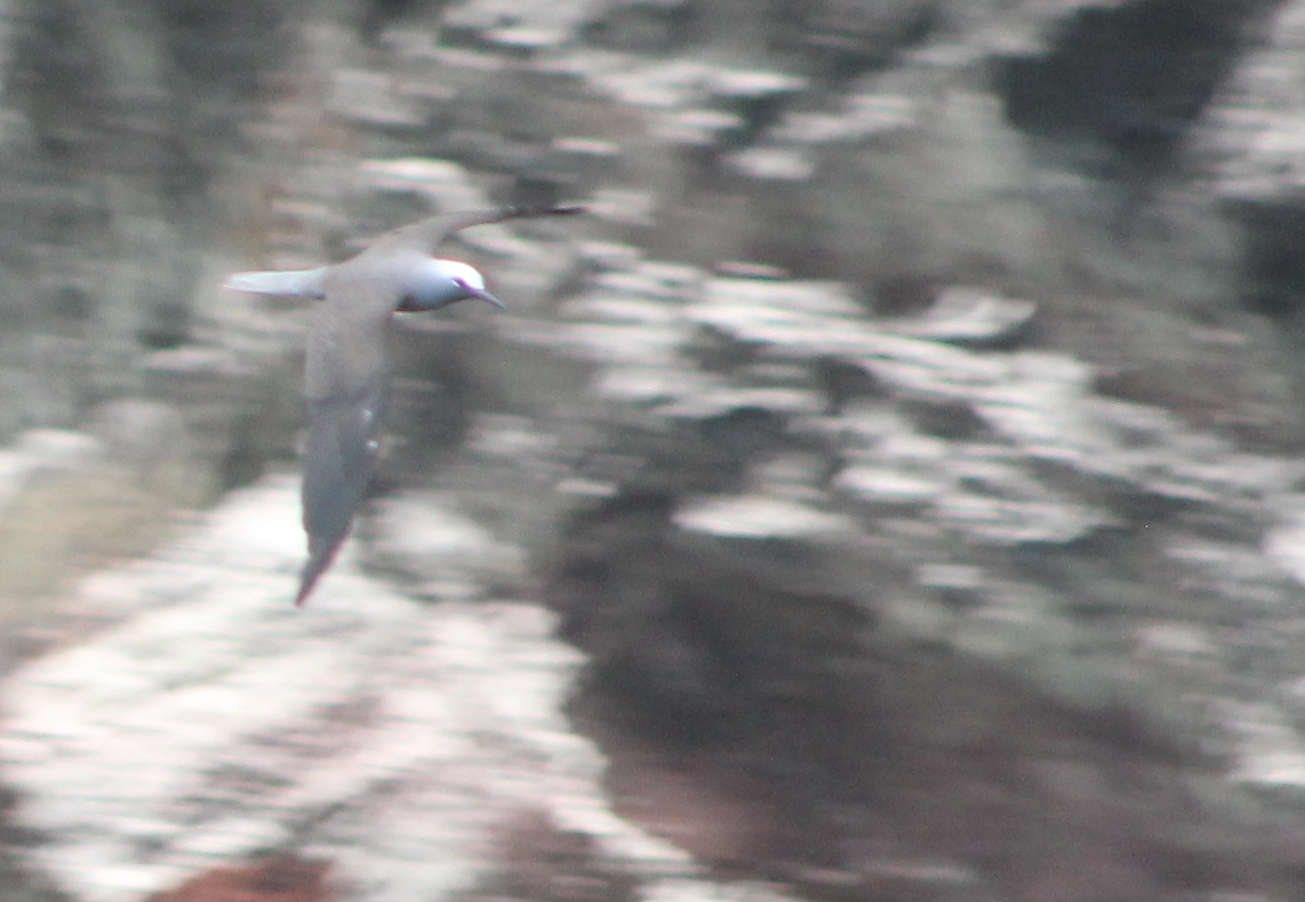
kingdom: Animalia
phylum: Chordata
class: Aves
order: Charadriiformes
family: Laridae
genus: Anous
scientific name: Anous minutus
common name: Black noddy
